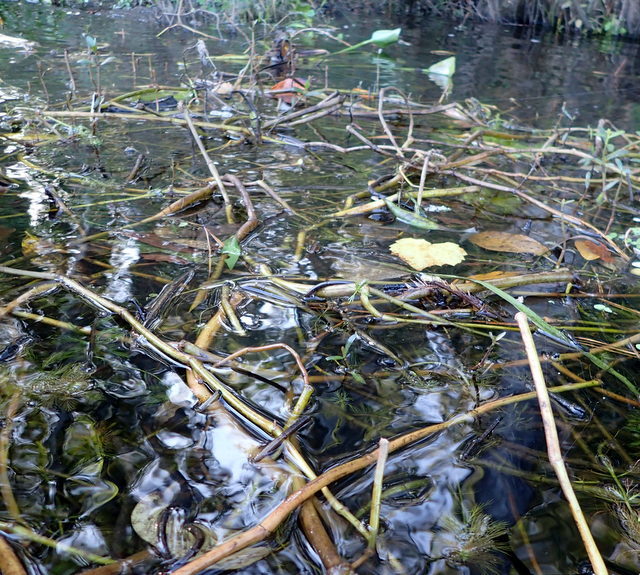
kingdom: Plantae
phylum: Tracheophyta
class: Magnoliopsida
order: Caryophyllales
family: Amaranthaceae
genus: Alternanthera
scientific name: Alternanthera philoxeroides
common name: Alligatorweed
